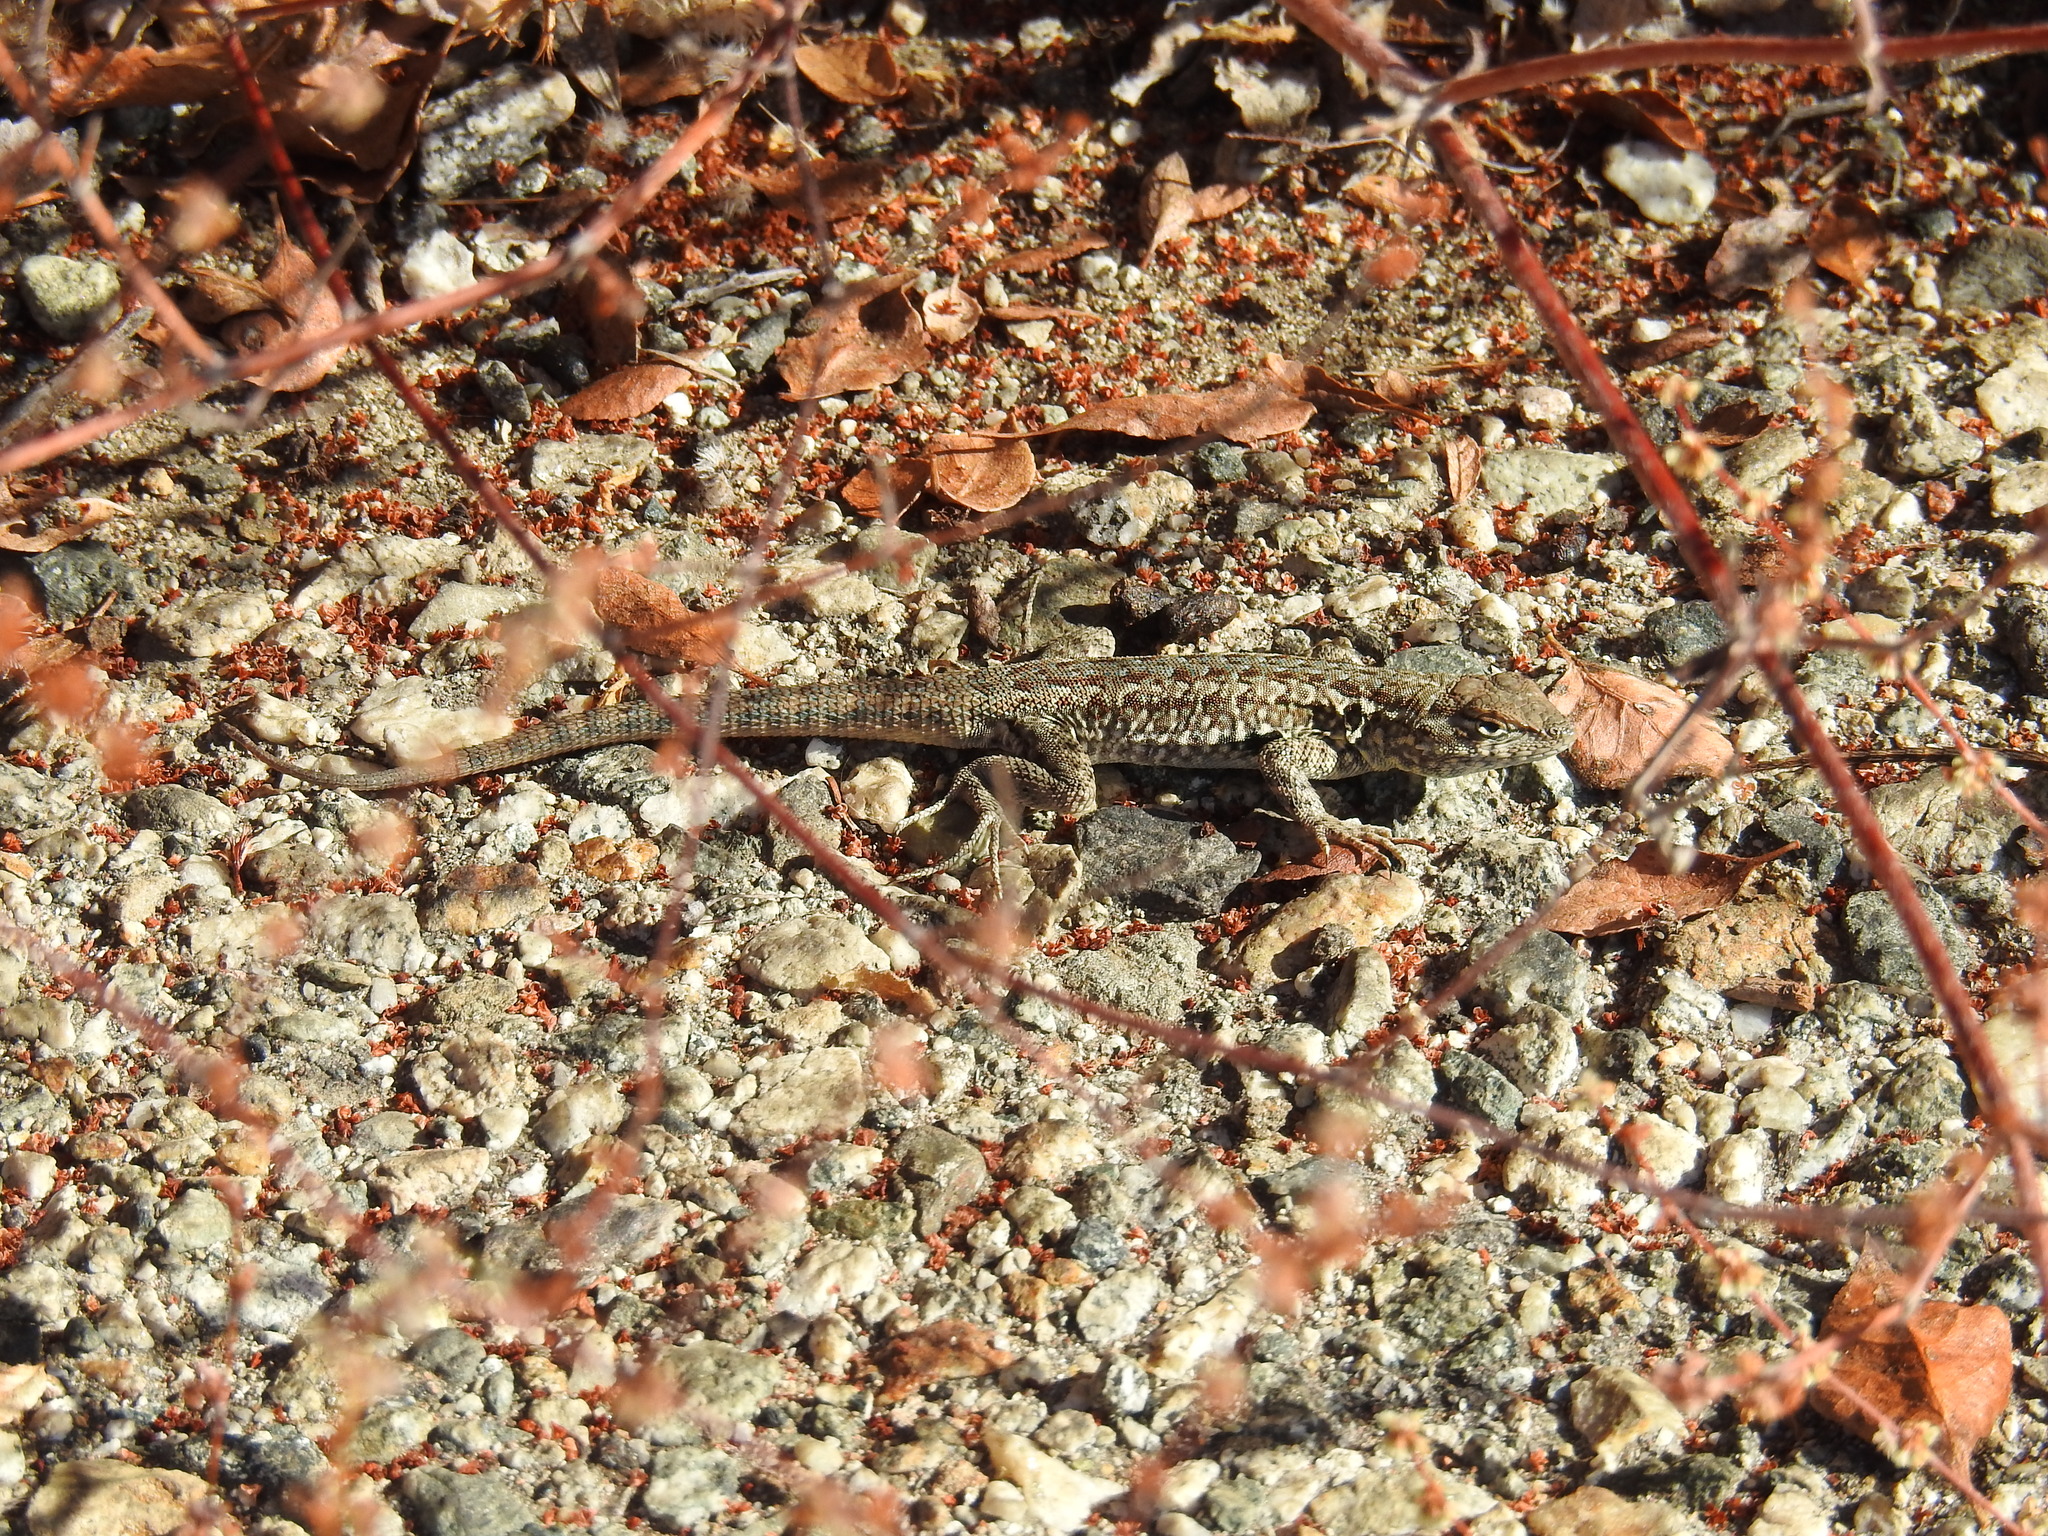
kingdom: Animalia
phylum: Chordata
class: Squamata
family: Phrynosomatidae
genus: Uta
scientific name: Uta stansburiana
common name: Side-blotched lizard
